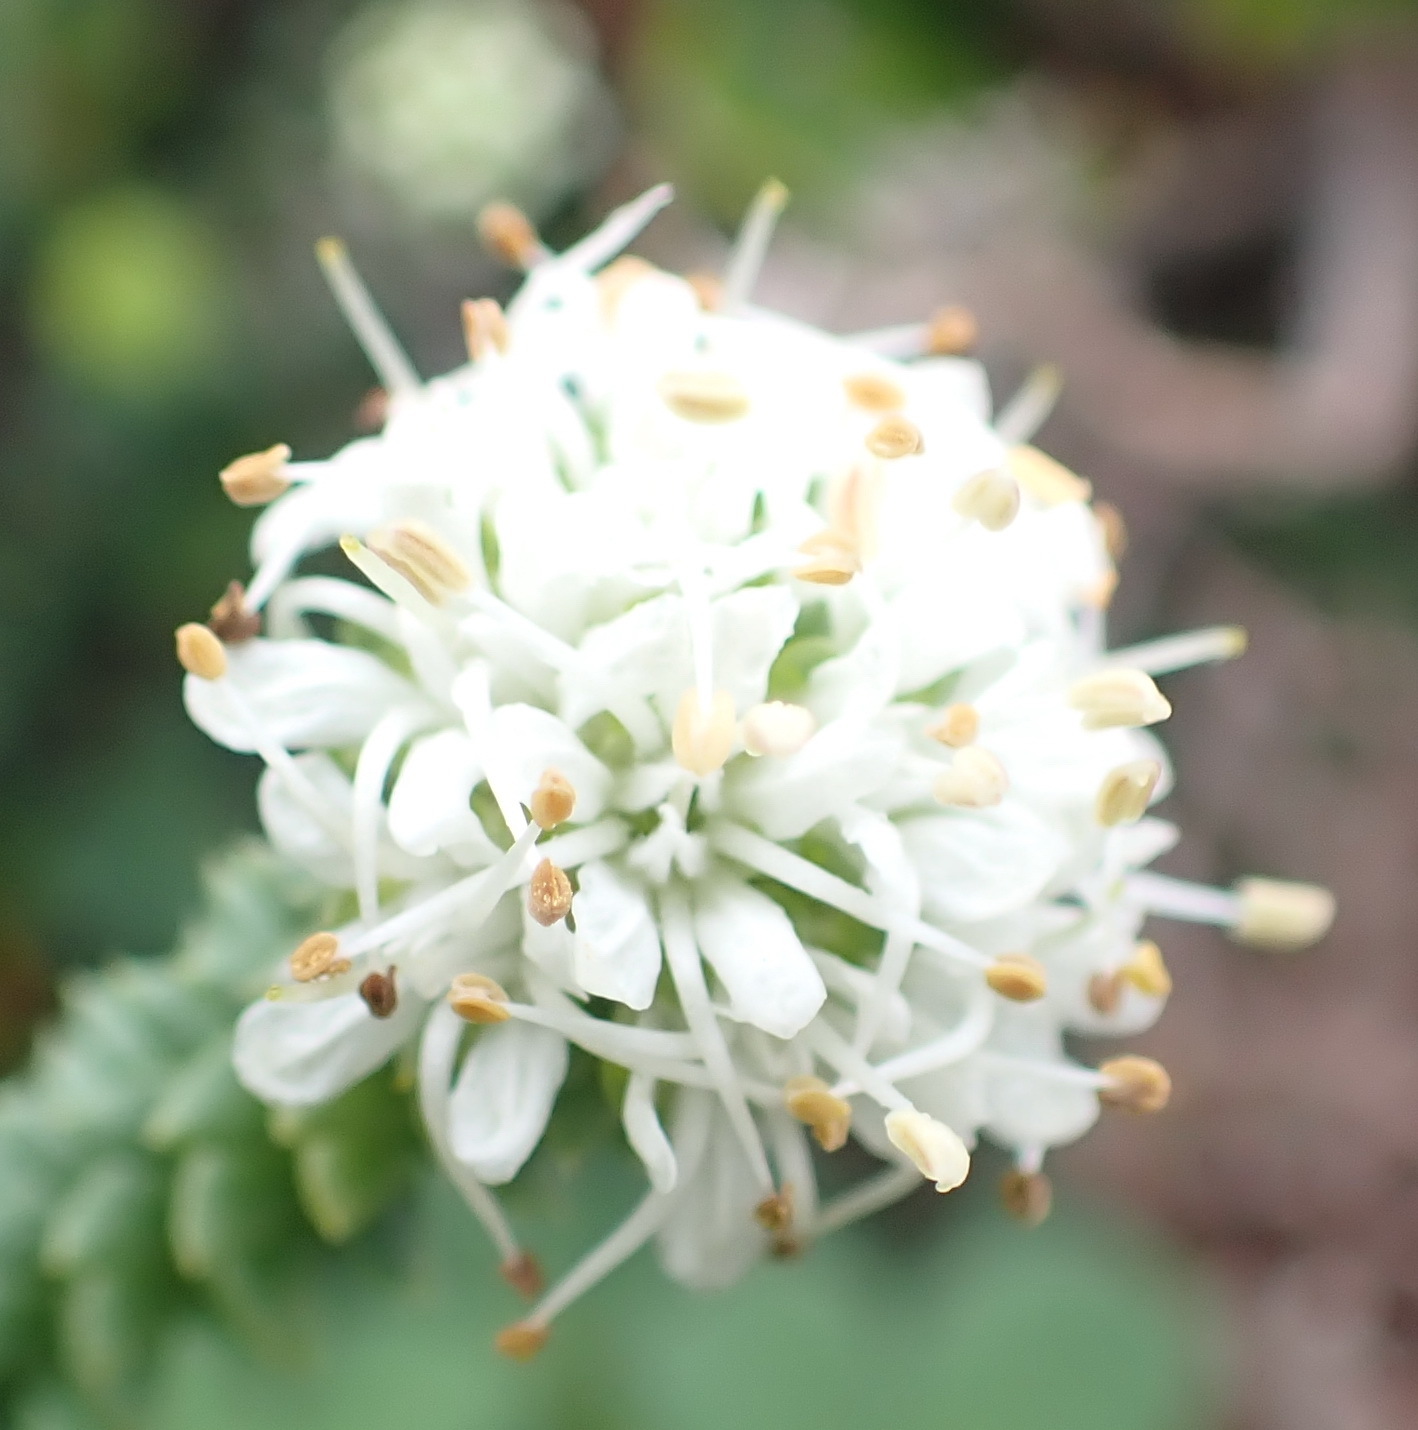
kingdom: Plantae
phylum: Tracheophyta
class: Magnoliopsida
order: Sapindales
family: Rutaceae
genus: Agathosma
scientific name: Agathosma apiculata
